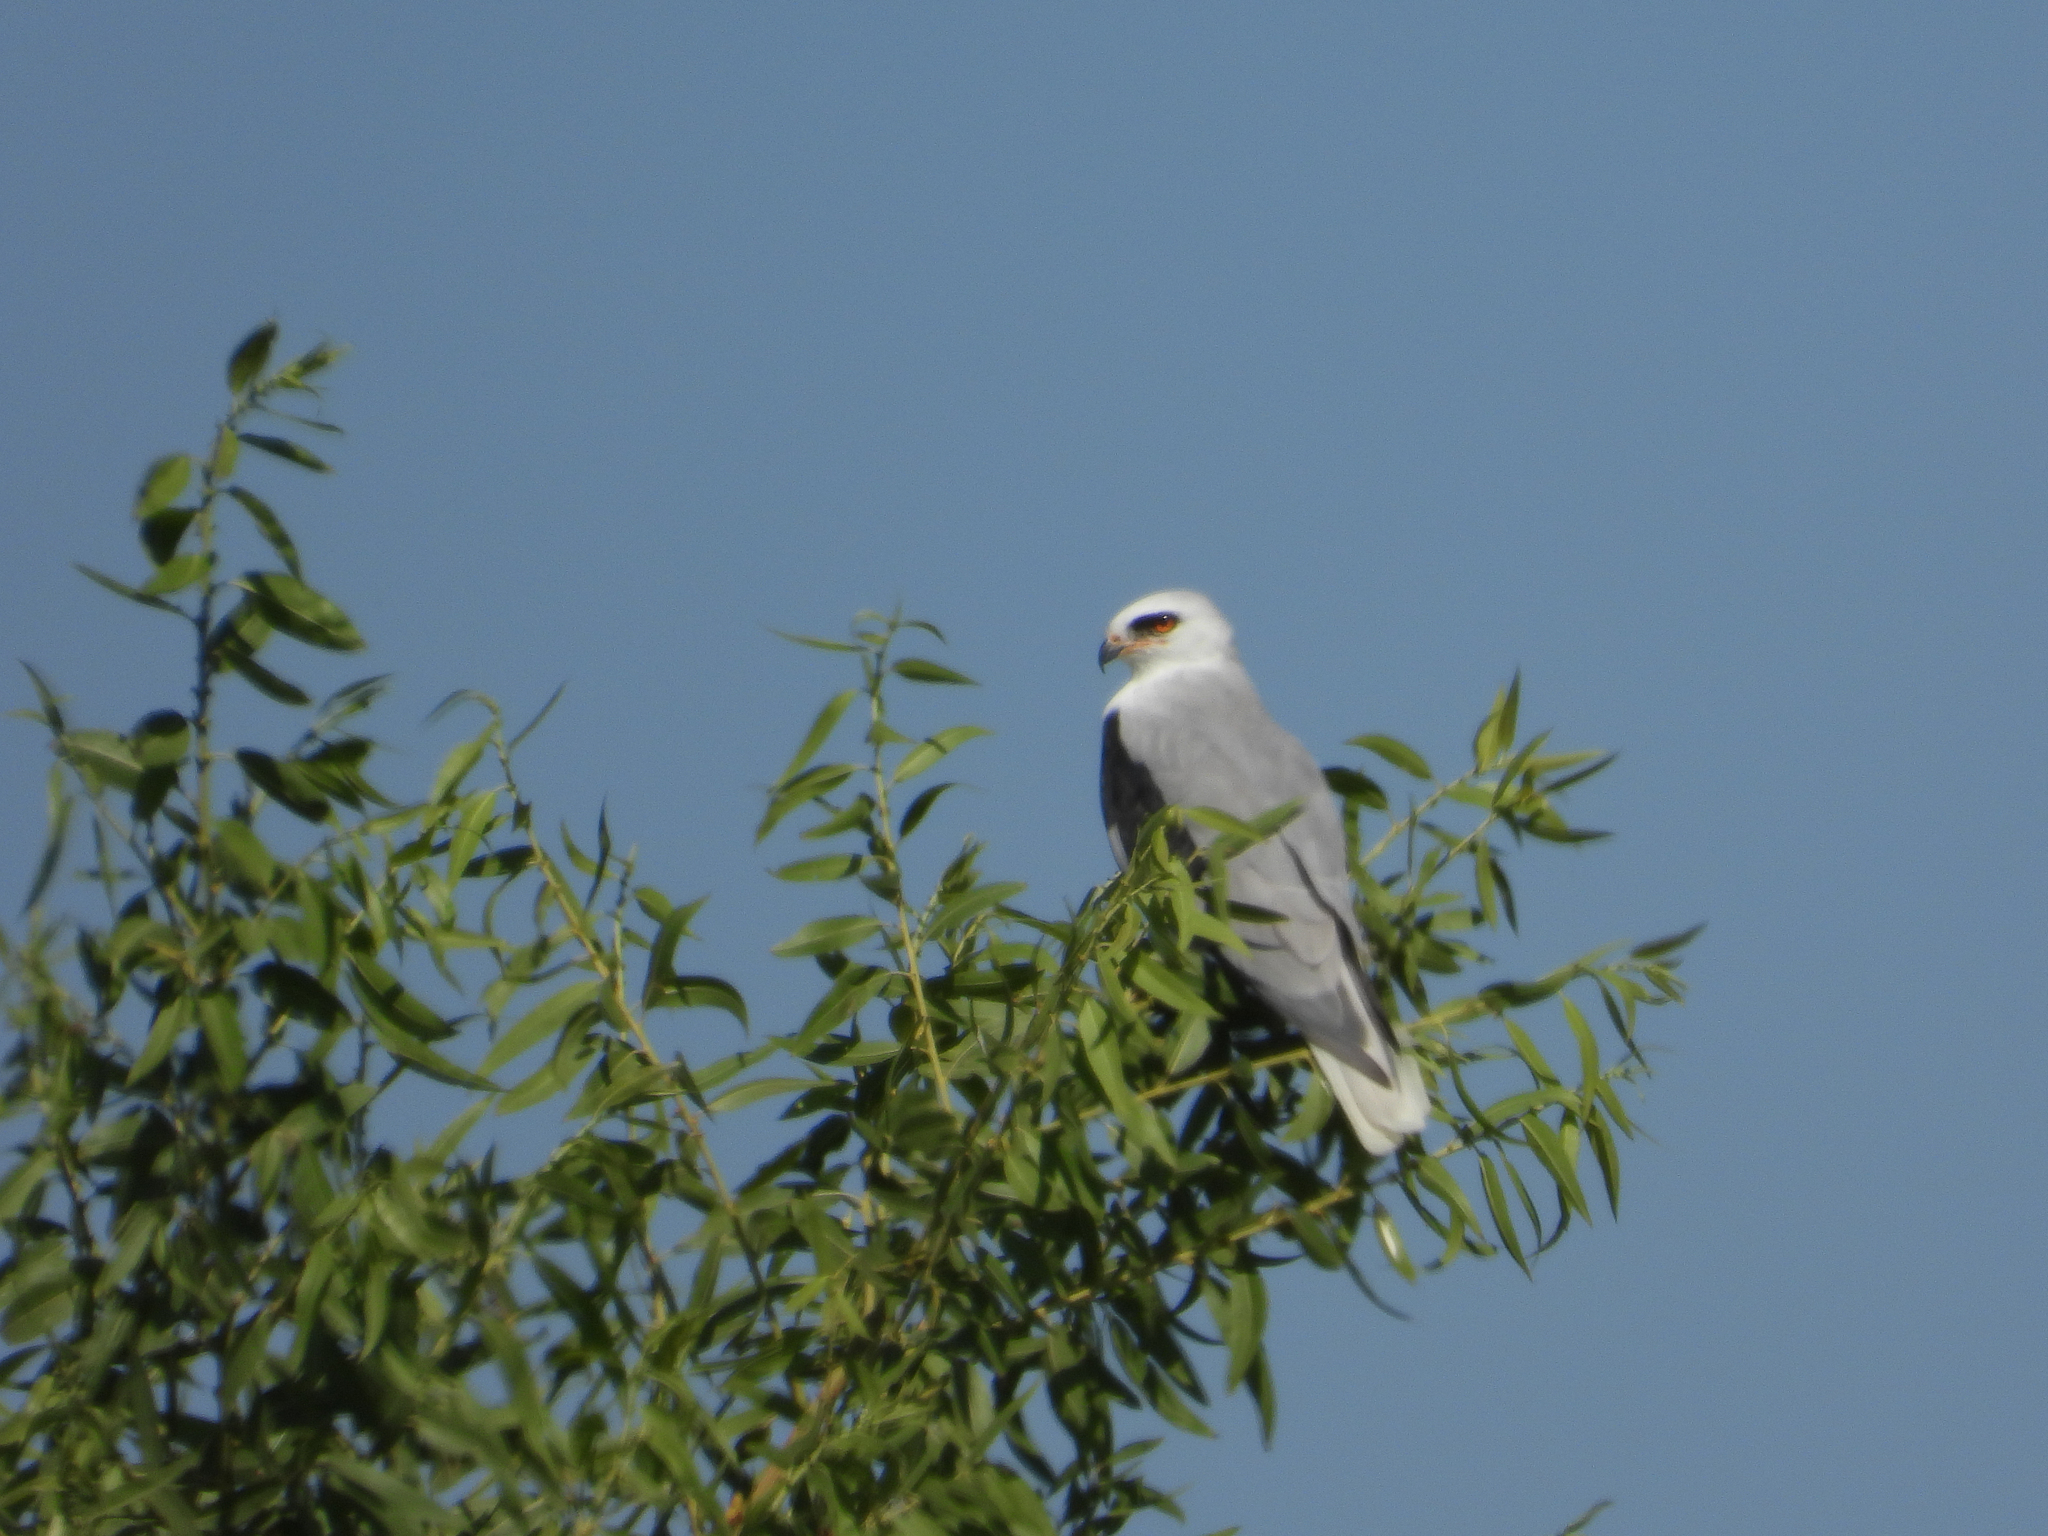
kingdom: Animalia
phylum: Chordata
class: Aves
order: Accipitriformes
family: Accipitridae
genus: Elanus
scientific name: Elanus leucurus
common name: White-tailed kite
